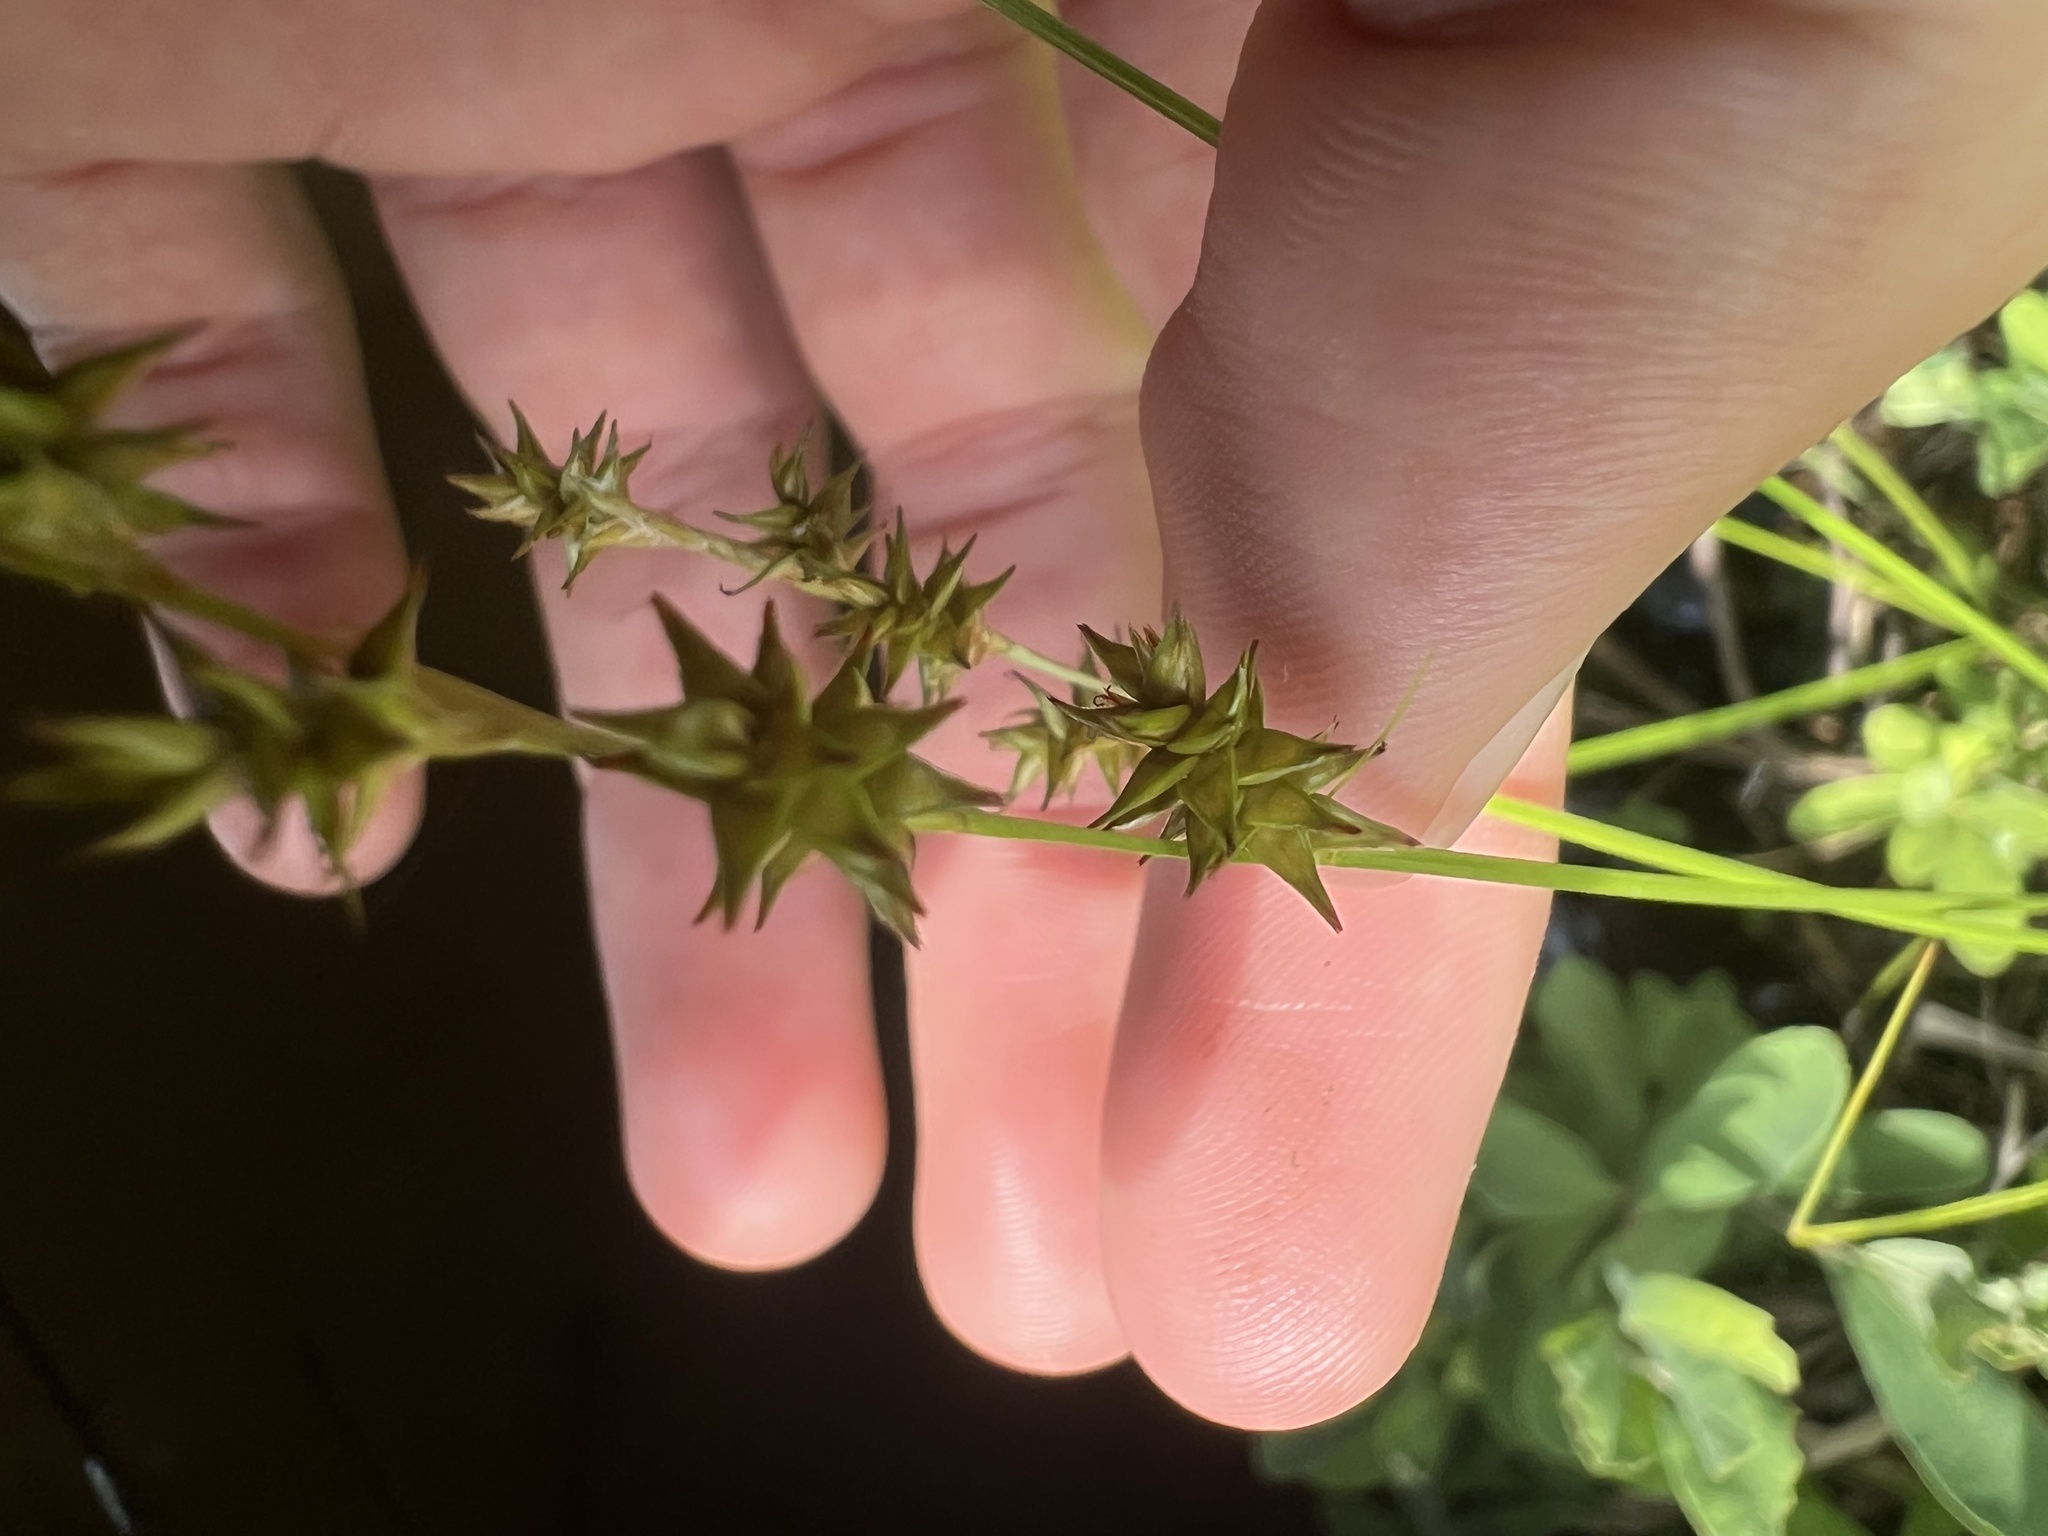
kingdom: Plantae
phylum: Tracheophyta
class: Liliopsida
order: Poales
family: Cyperaceae
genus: Carex
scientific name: Carex echinata
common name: Star sedge
